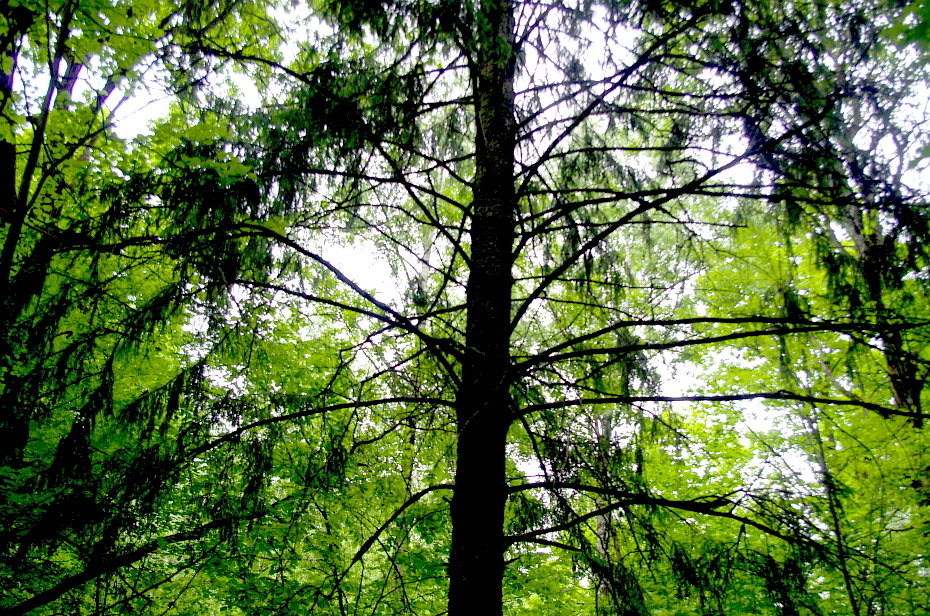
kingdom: Plantae
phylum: Tracheophyta
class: Pinopsida
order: Pinales
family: Pinaceae
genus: Picea
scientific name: Picea abies
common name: Norway spruce
